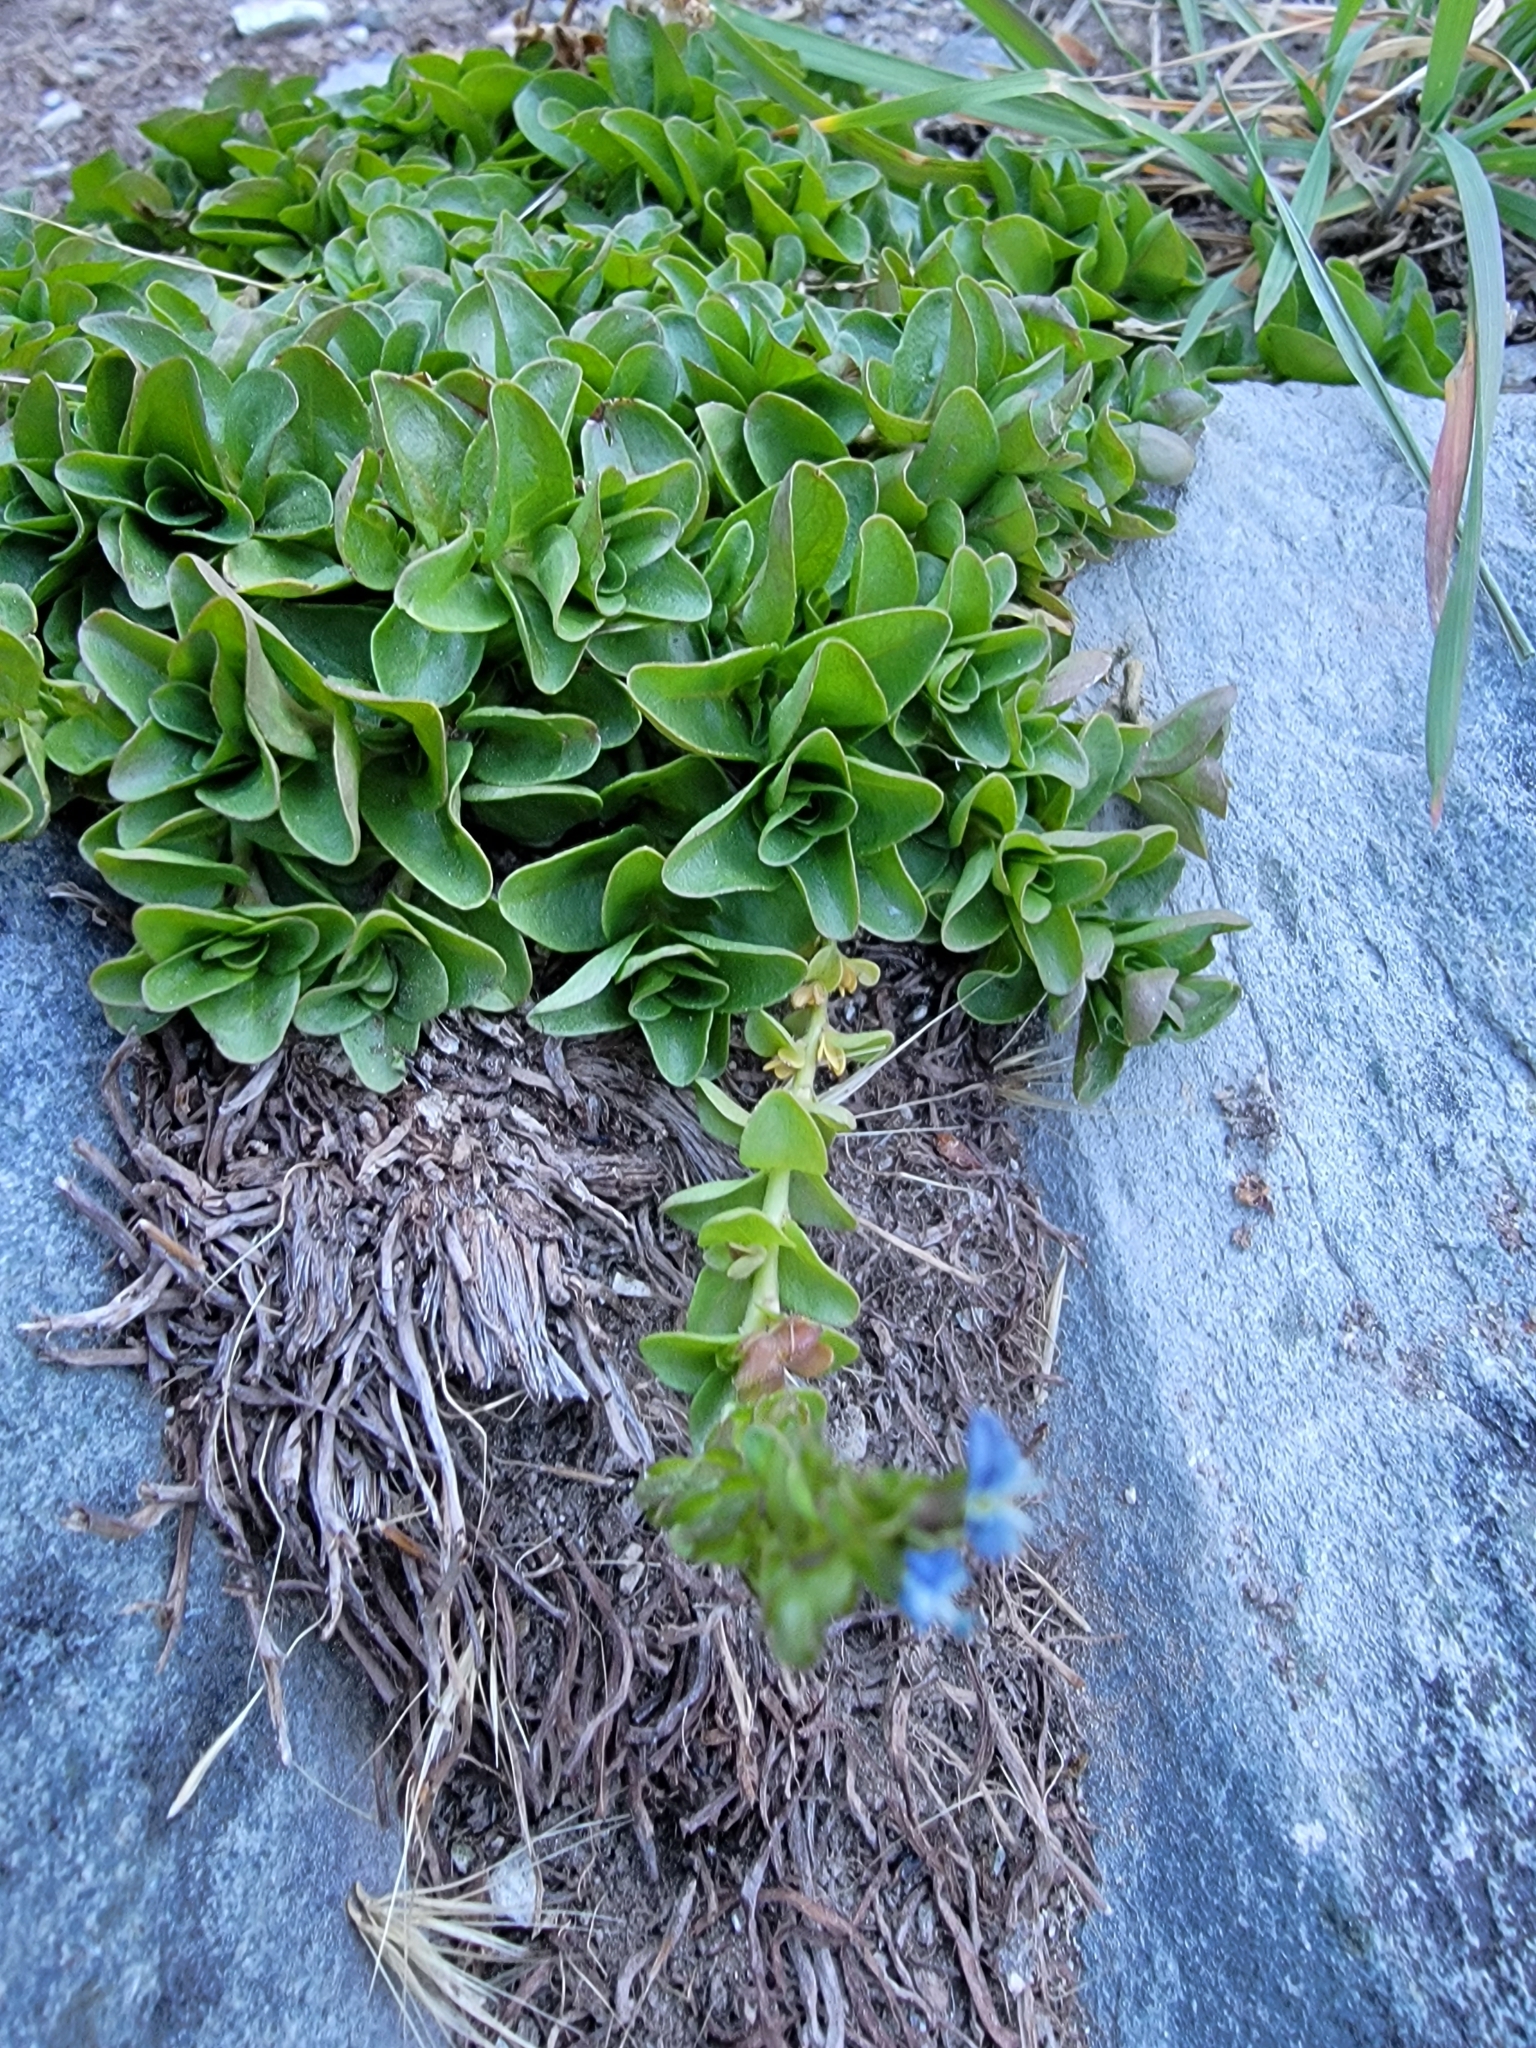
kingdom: Plantae
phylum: Tracheophyta
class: Magnoliopsida
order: Lamiales
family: Plantaginaceae
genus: Veronica
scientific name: Veronica serpyllifolia
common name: Thyme-leaved speedwell
